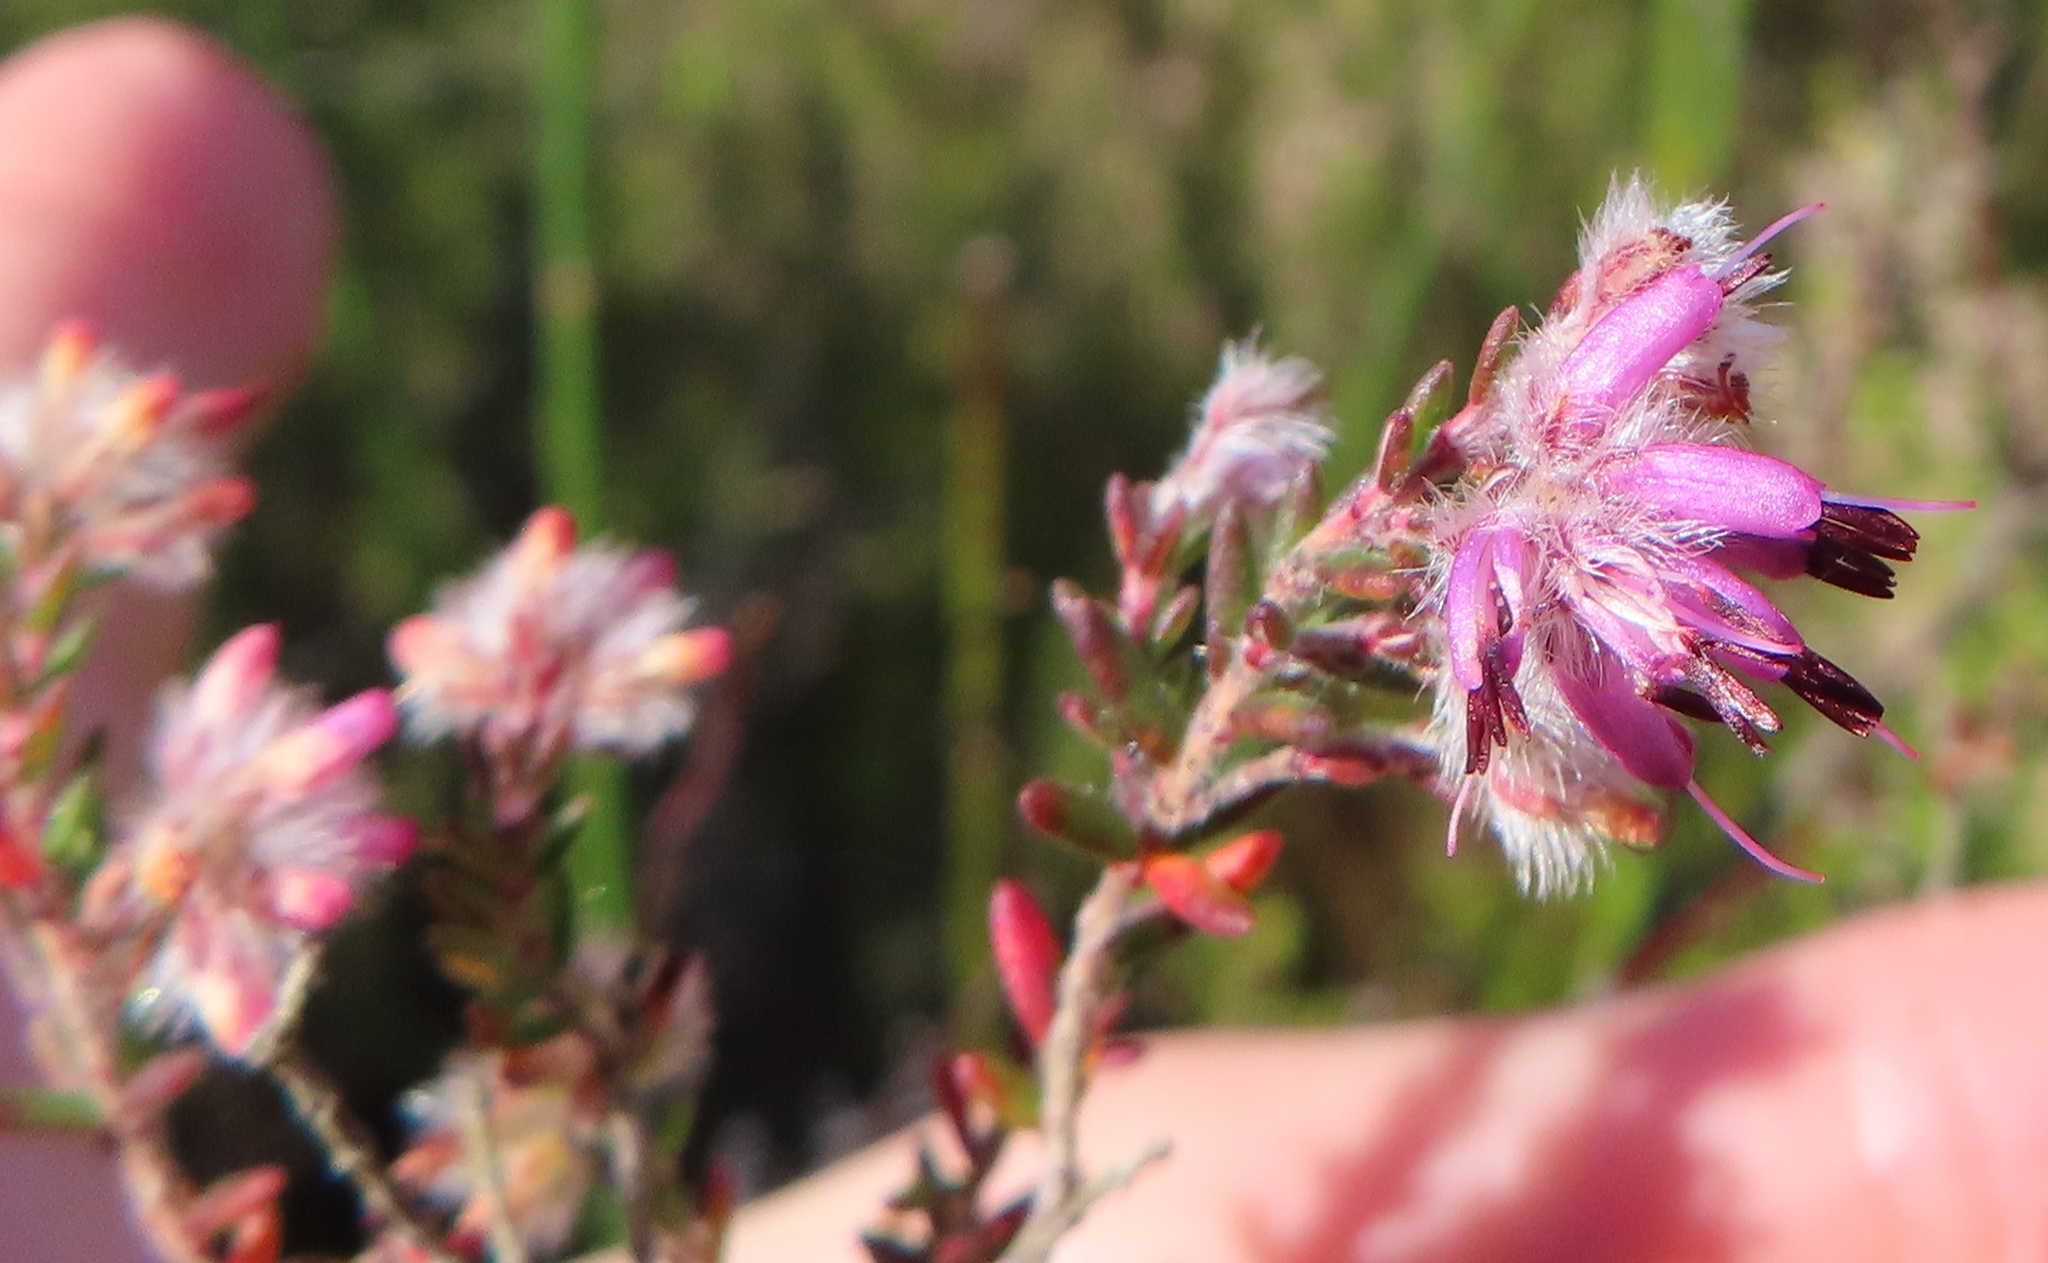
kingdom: Plantae
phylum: Tracheophyta
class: Magnoliopsida
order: Ericales
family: Ericaceae
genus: Erica
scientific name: Erica eriocephala
